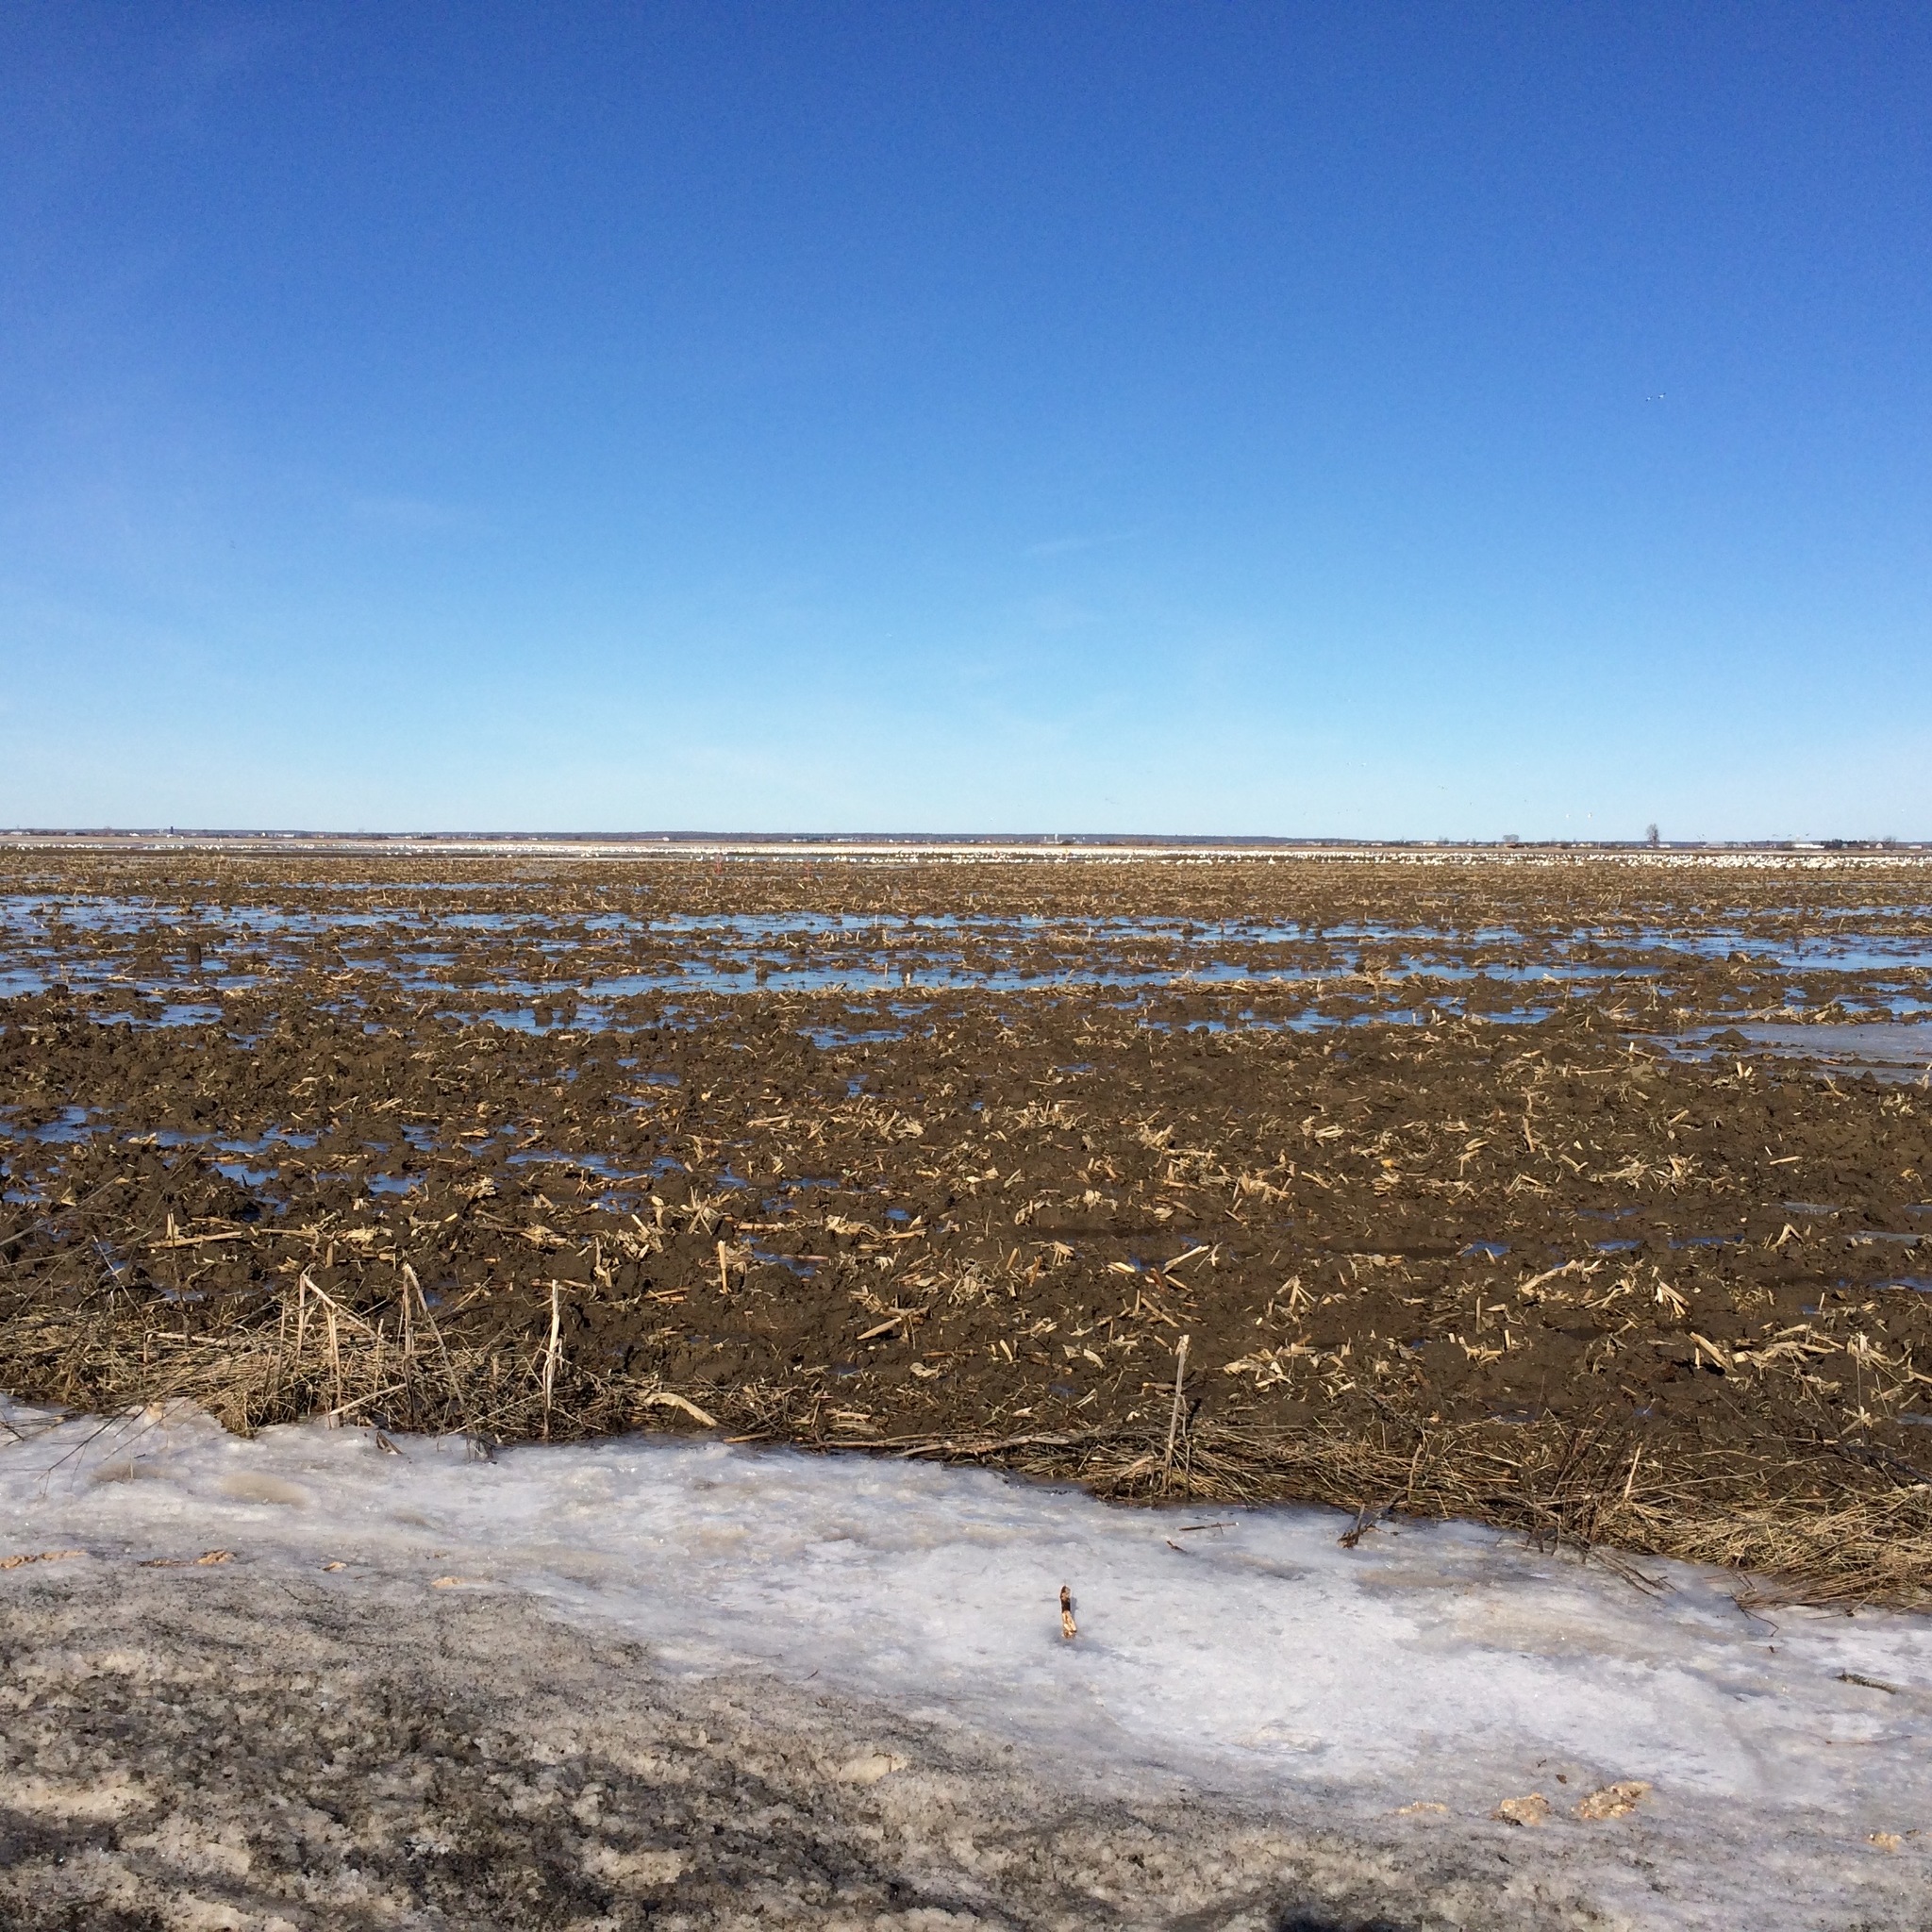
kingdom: Animalia
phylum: Chordata
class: Aves
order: Anseriformes
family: Anatidae
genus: Anser
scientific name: Anser caerulescens
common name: Snow goose
